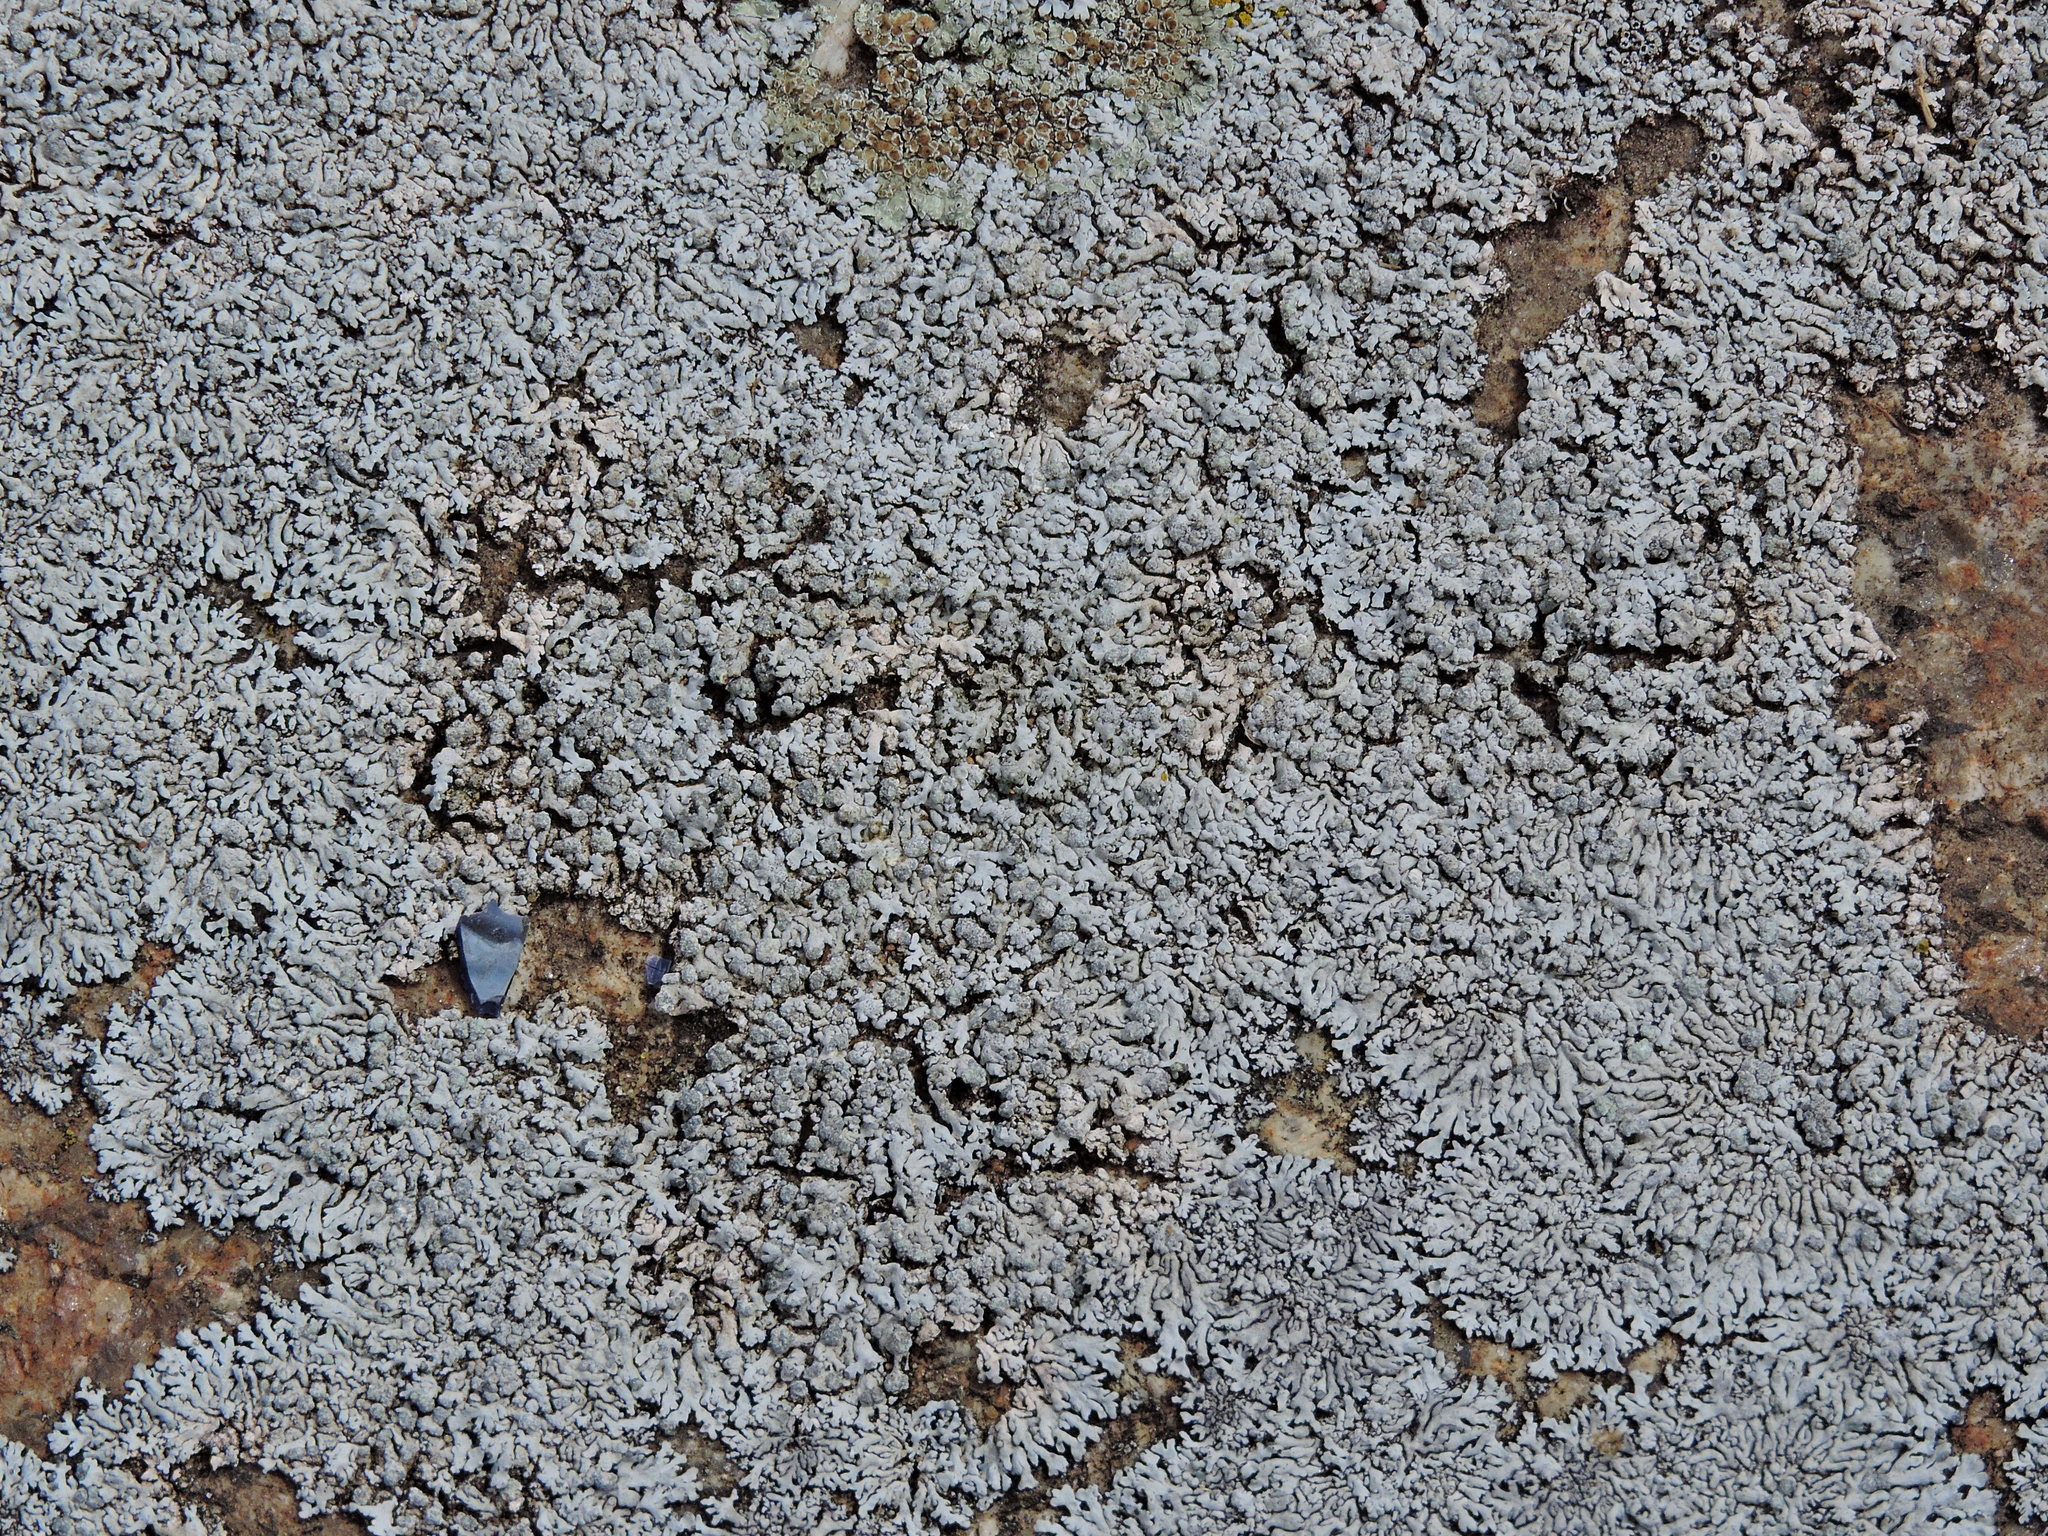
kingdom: Fungi
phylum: Ascomycota
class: Lecanoromycetes
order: Caliciales
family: Physciaceae
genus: Physcia
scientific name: Physcia caesia
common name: Blue-gray rosette lichen
